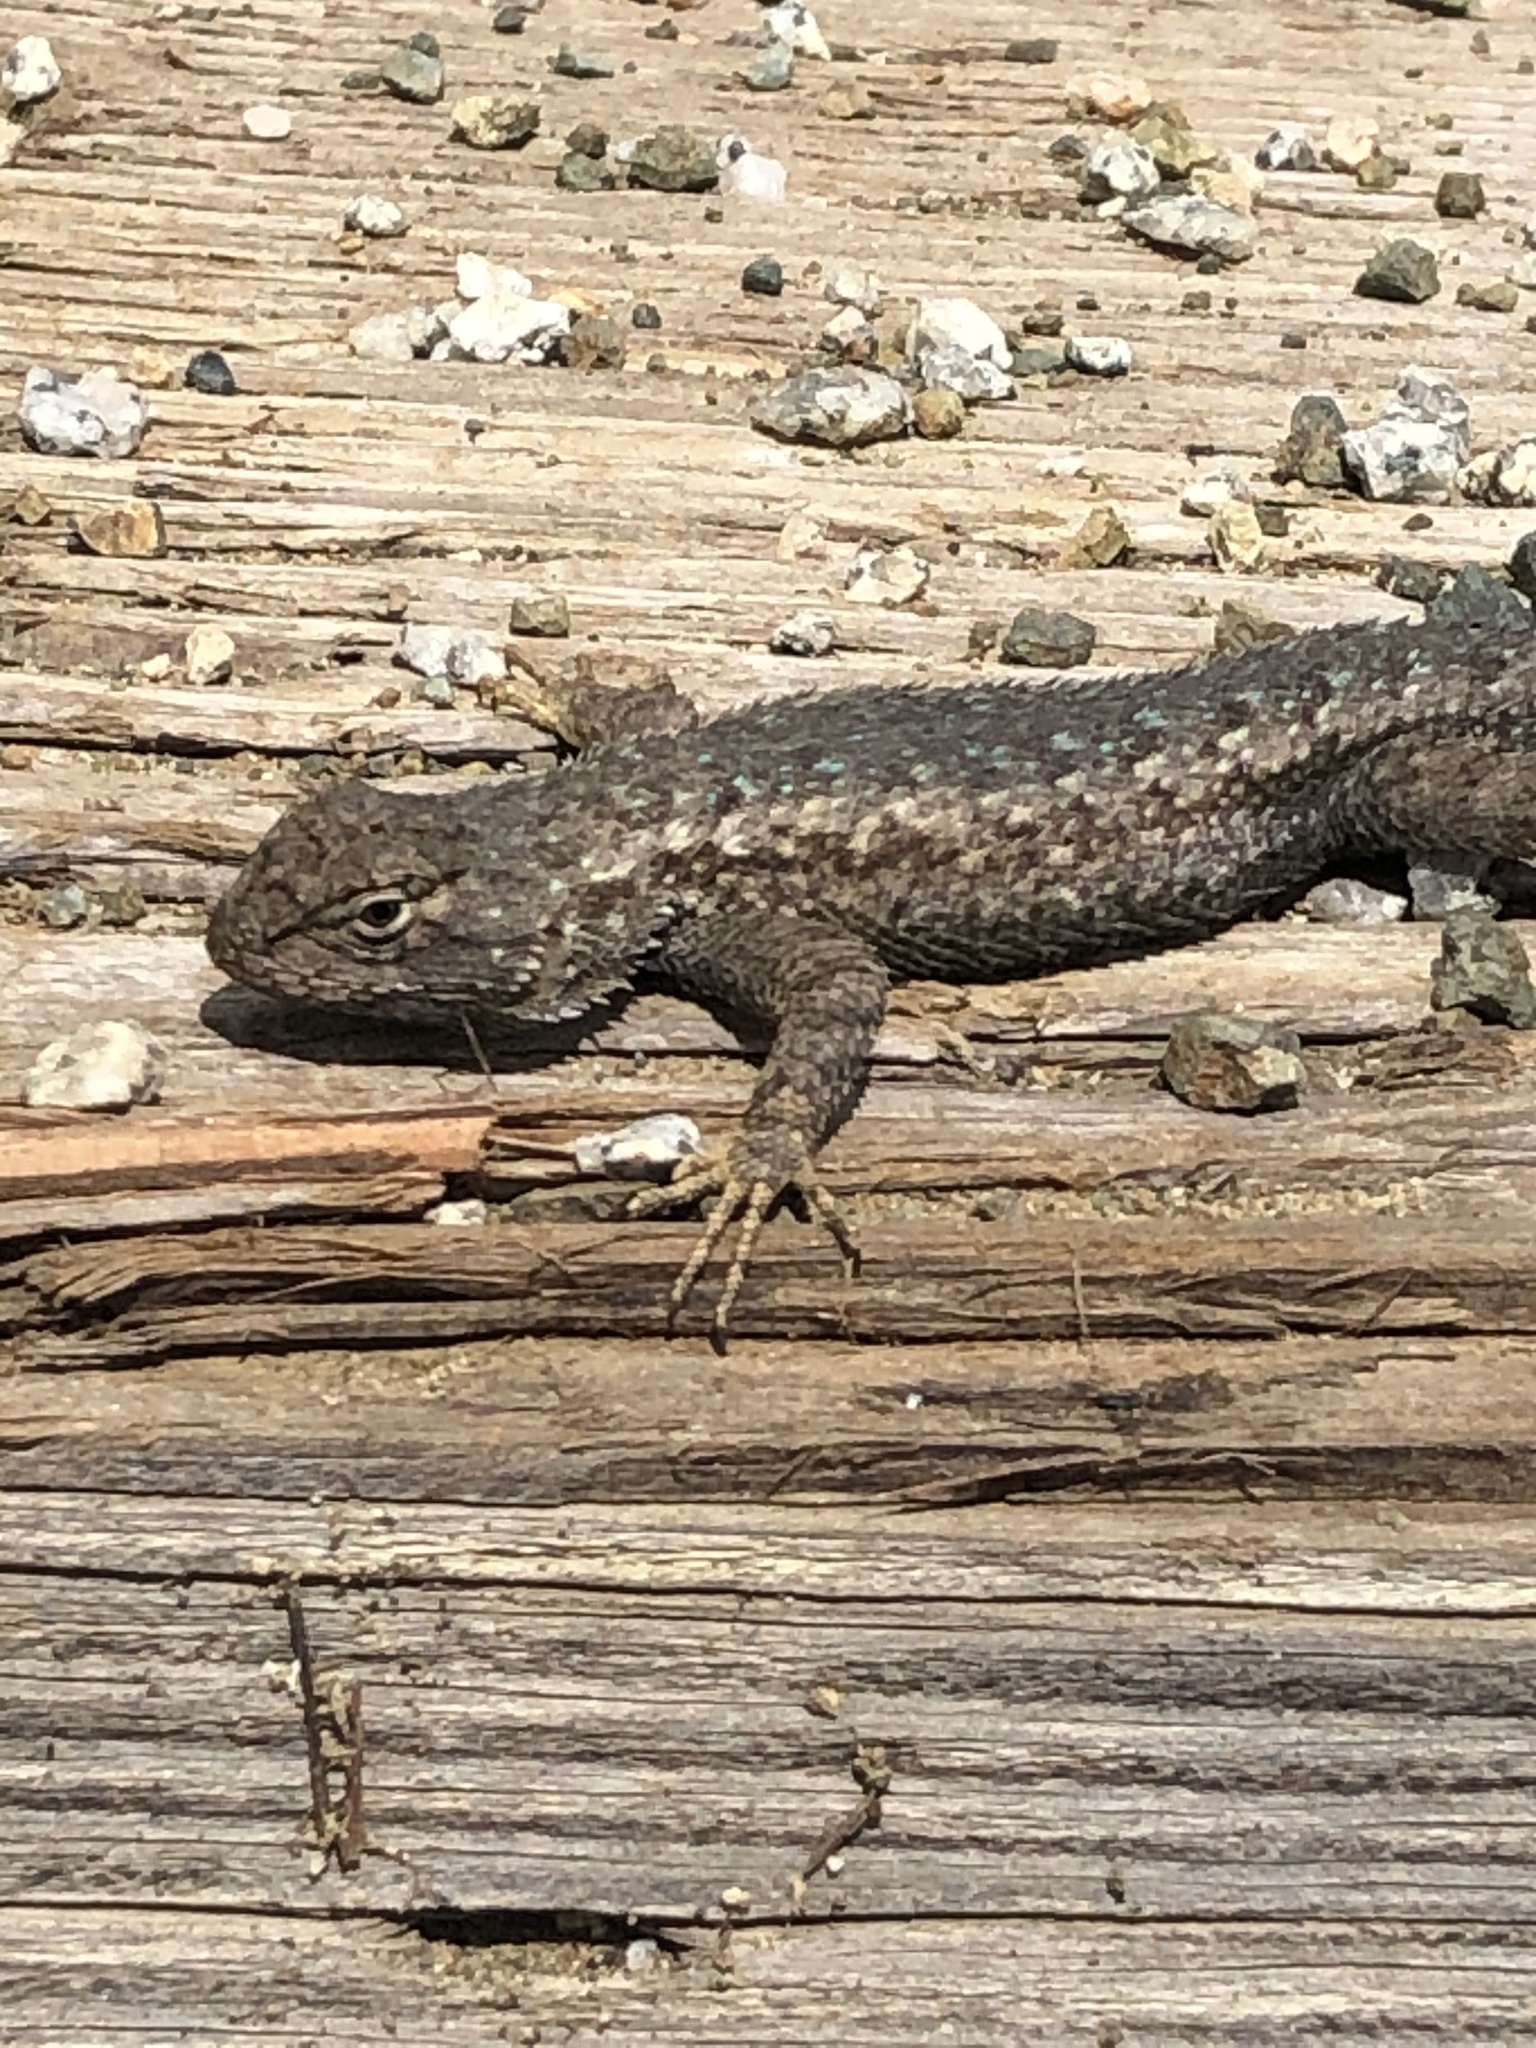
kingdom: Animalia
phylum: Chordata
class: Squamata
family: Phrynosomatidae
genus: Sceloporus
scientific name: Sceloporus occidentalis
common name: Western fence lizard
